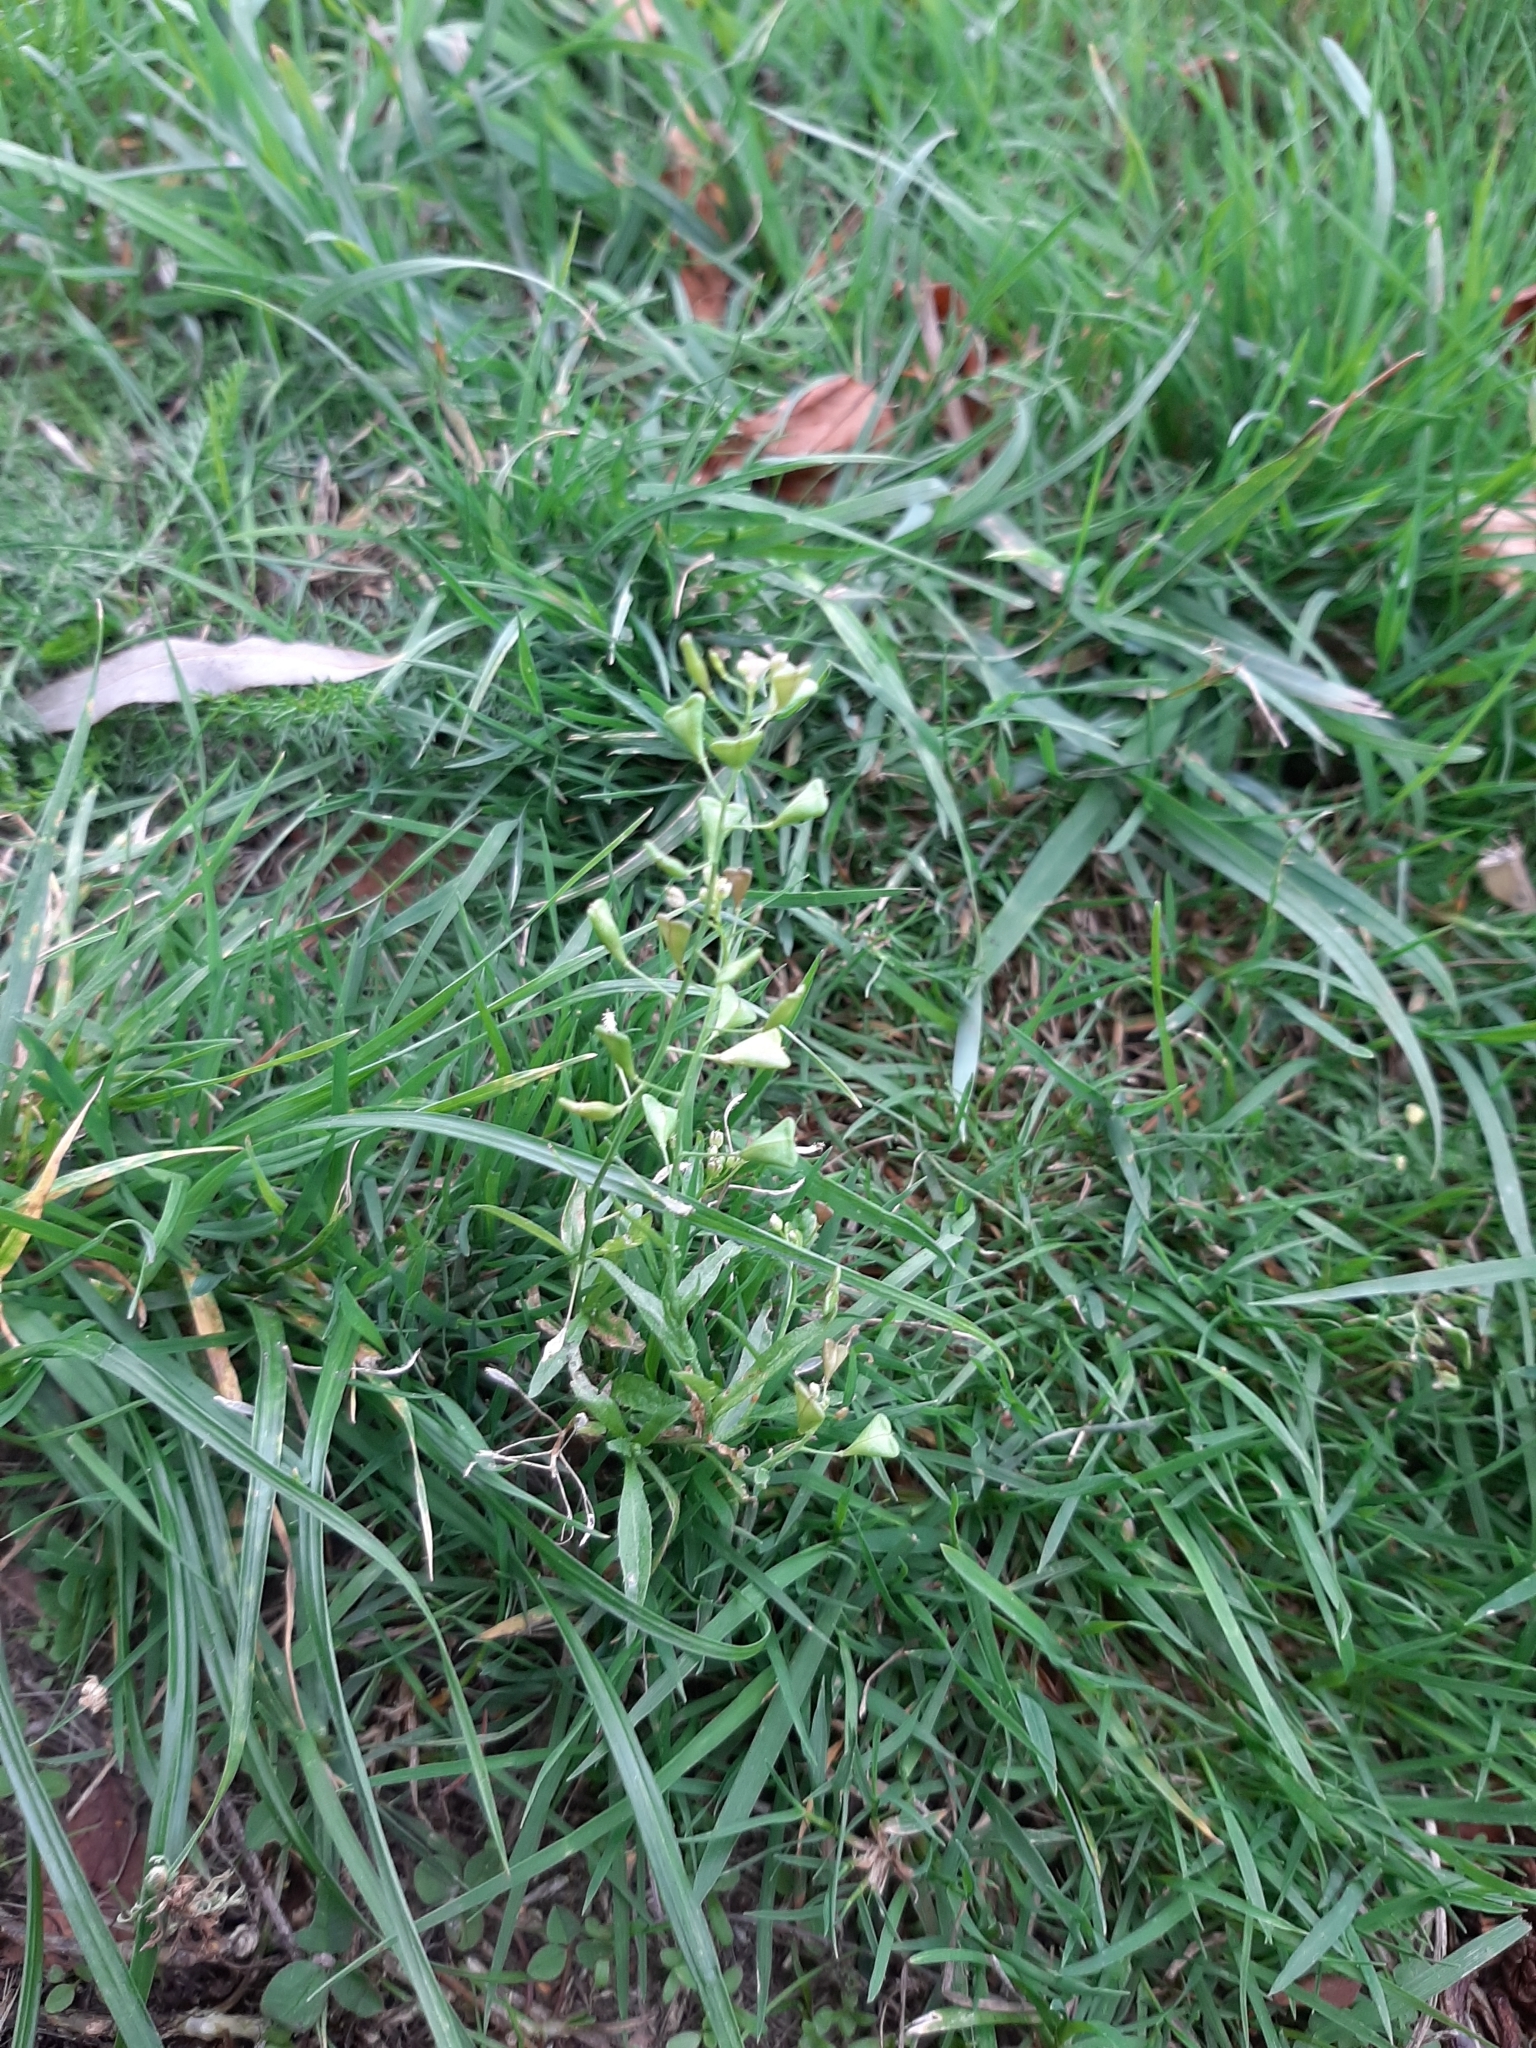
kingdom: Plantae
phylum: Tracheophyta
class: Magnoliopsida
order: Brassicales
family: Brassicaceae
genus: Capsella
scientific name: Capsella bursa-pastoris
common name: Shepherd's purse
